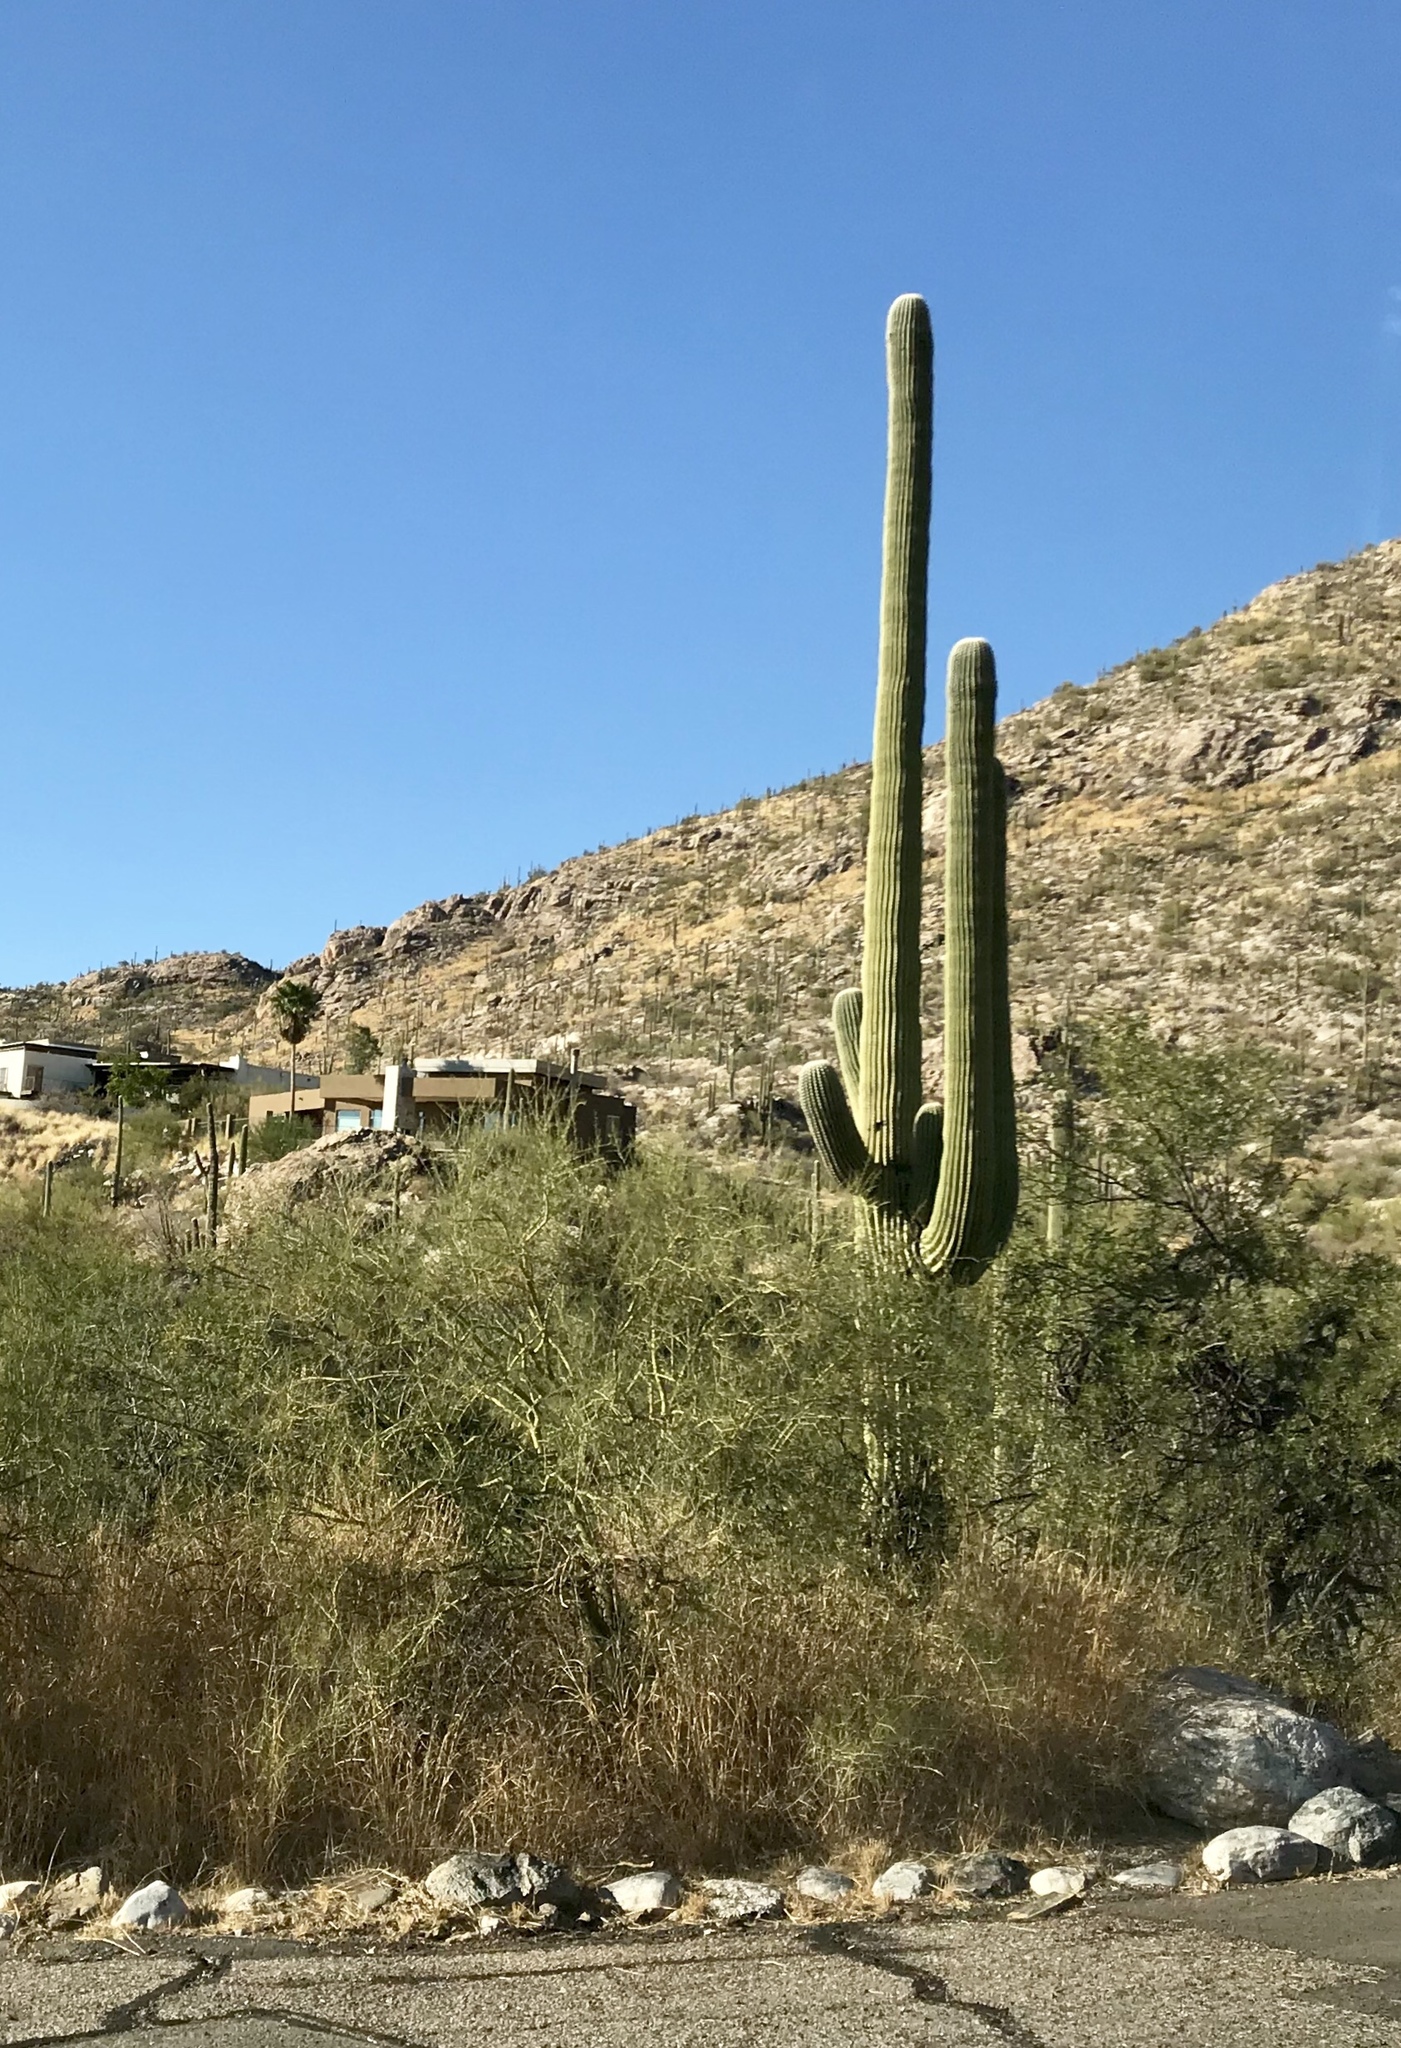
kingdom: Plantae
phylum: Tracheophyta
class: Magnoliopsida
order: Caryophyllales
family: Cactaceae
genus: Carnegiea
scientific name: Carnegiea gigantea
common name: Saguaro
